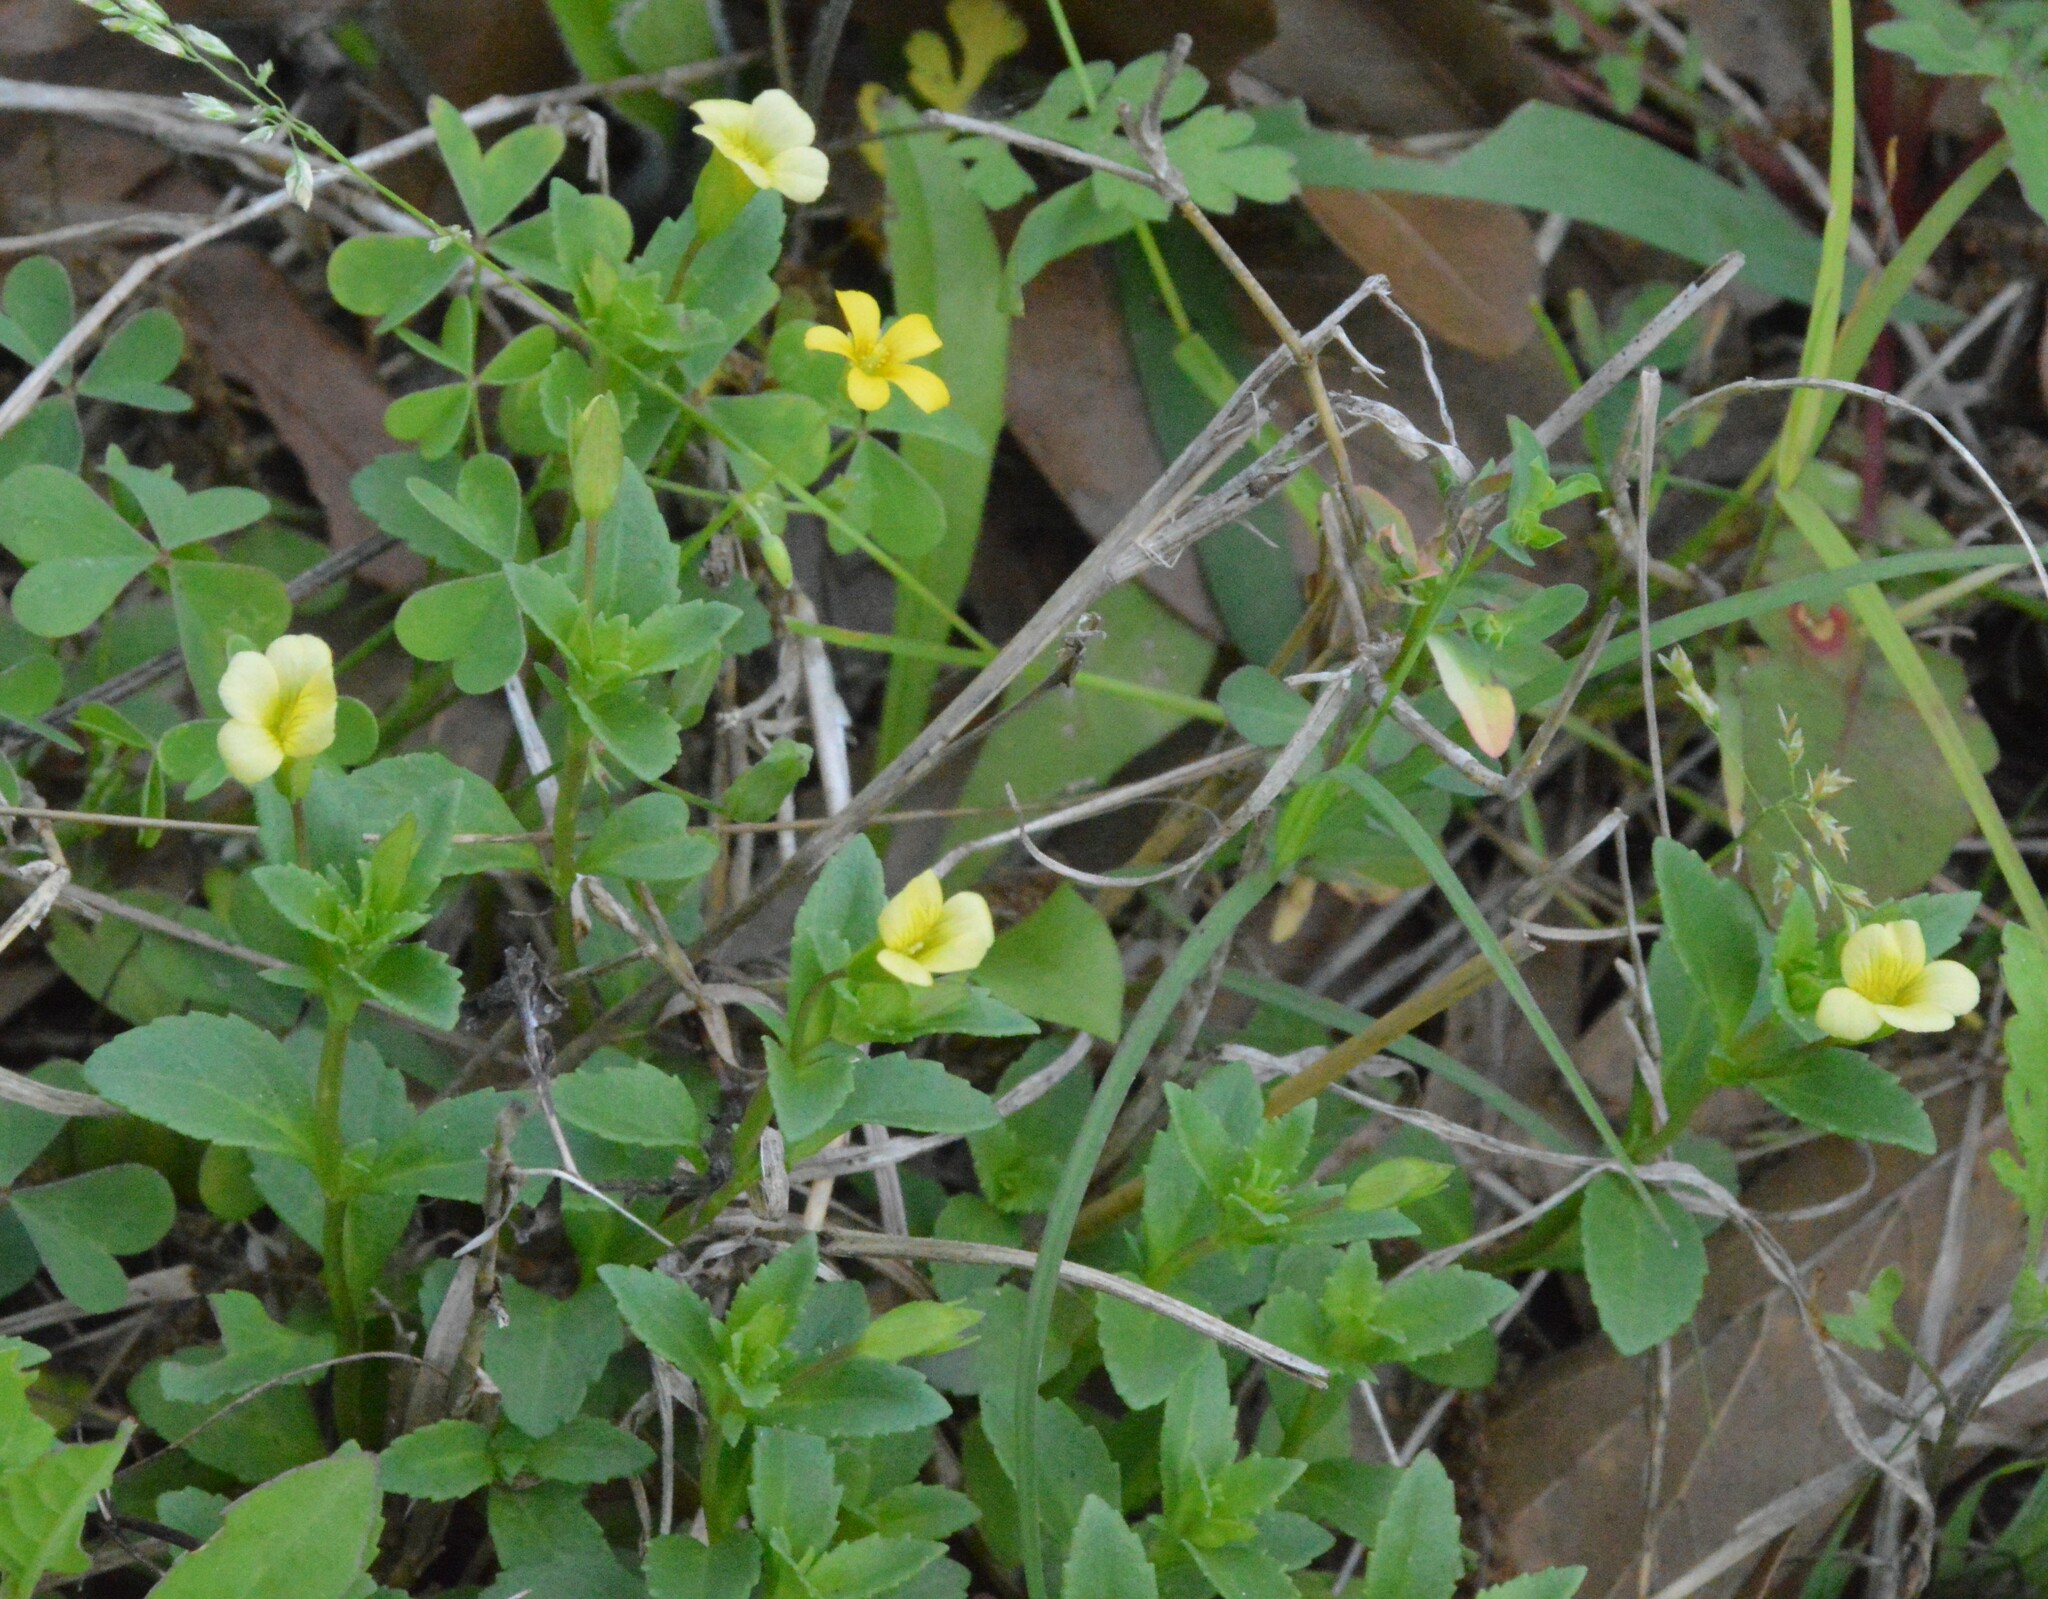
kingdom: Plantae
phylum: Tracheophyta
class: Magnoliopsida
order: Lamiales
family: Plantaginaceae
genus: Mecardonia
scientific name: Mecardonia procumbens
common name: Baby jump-up
